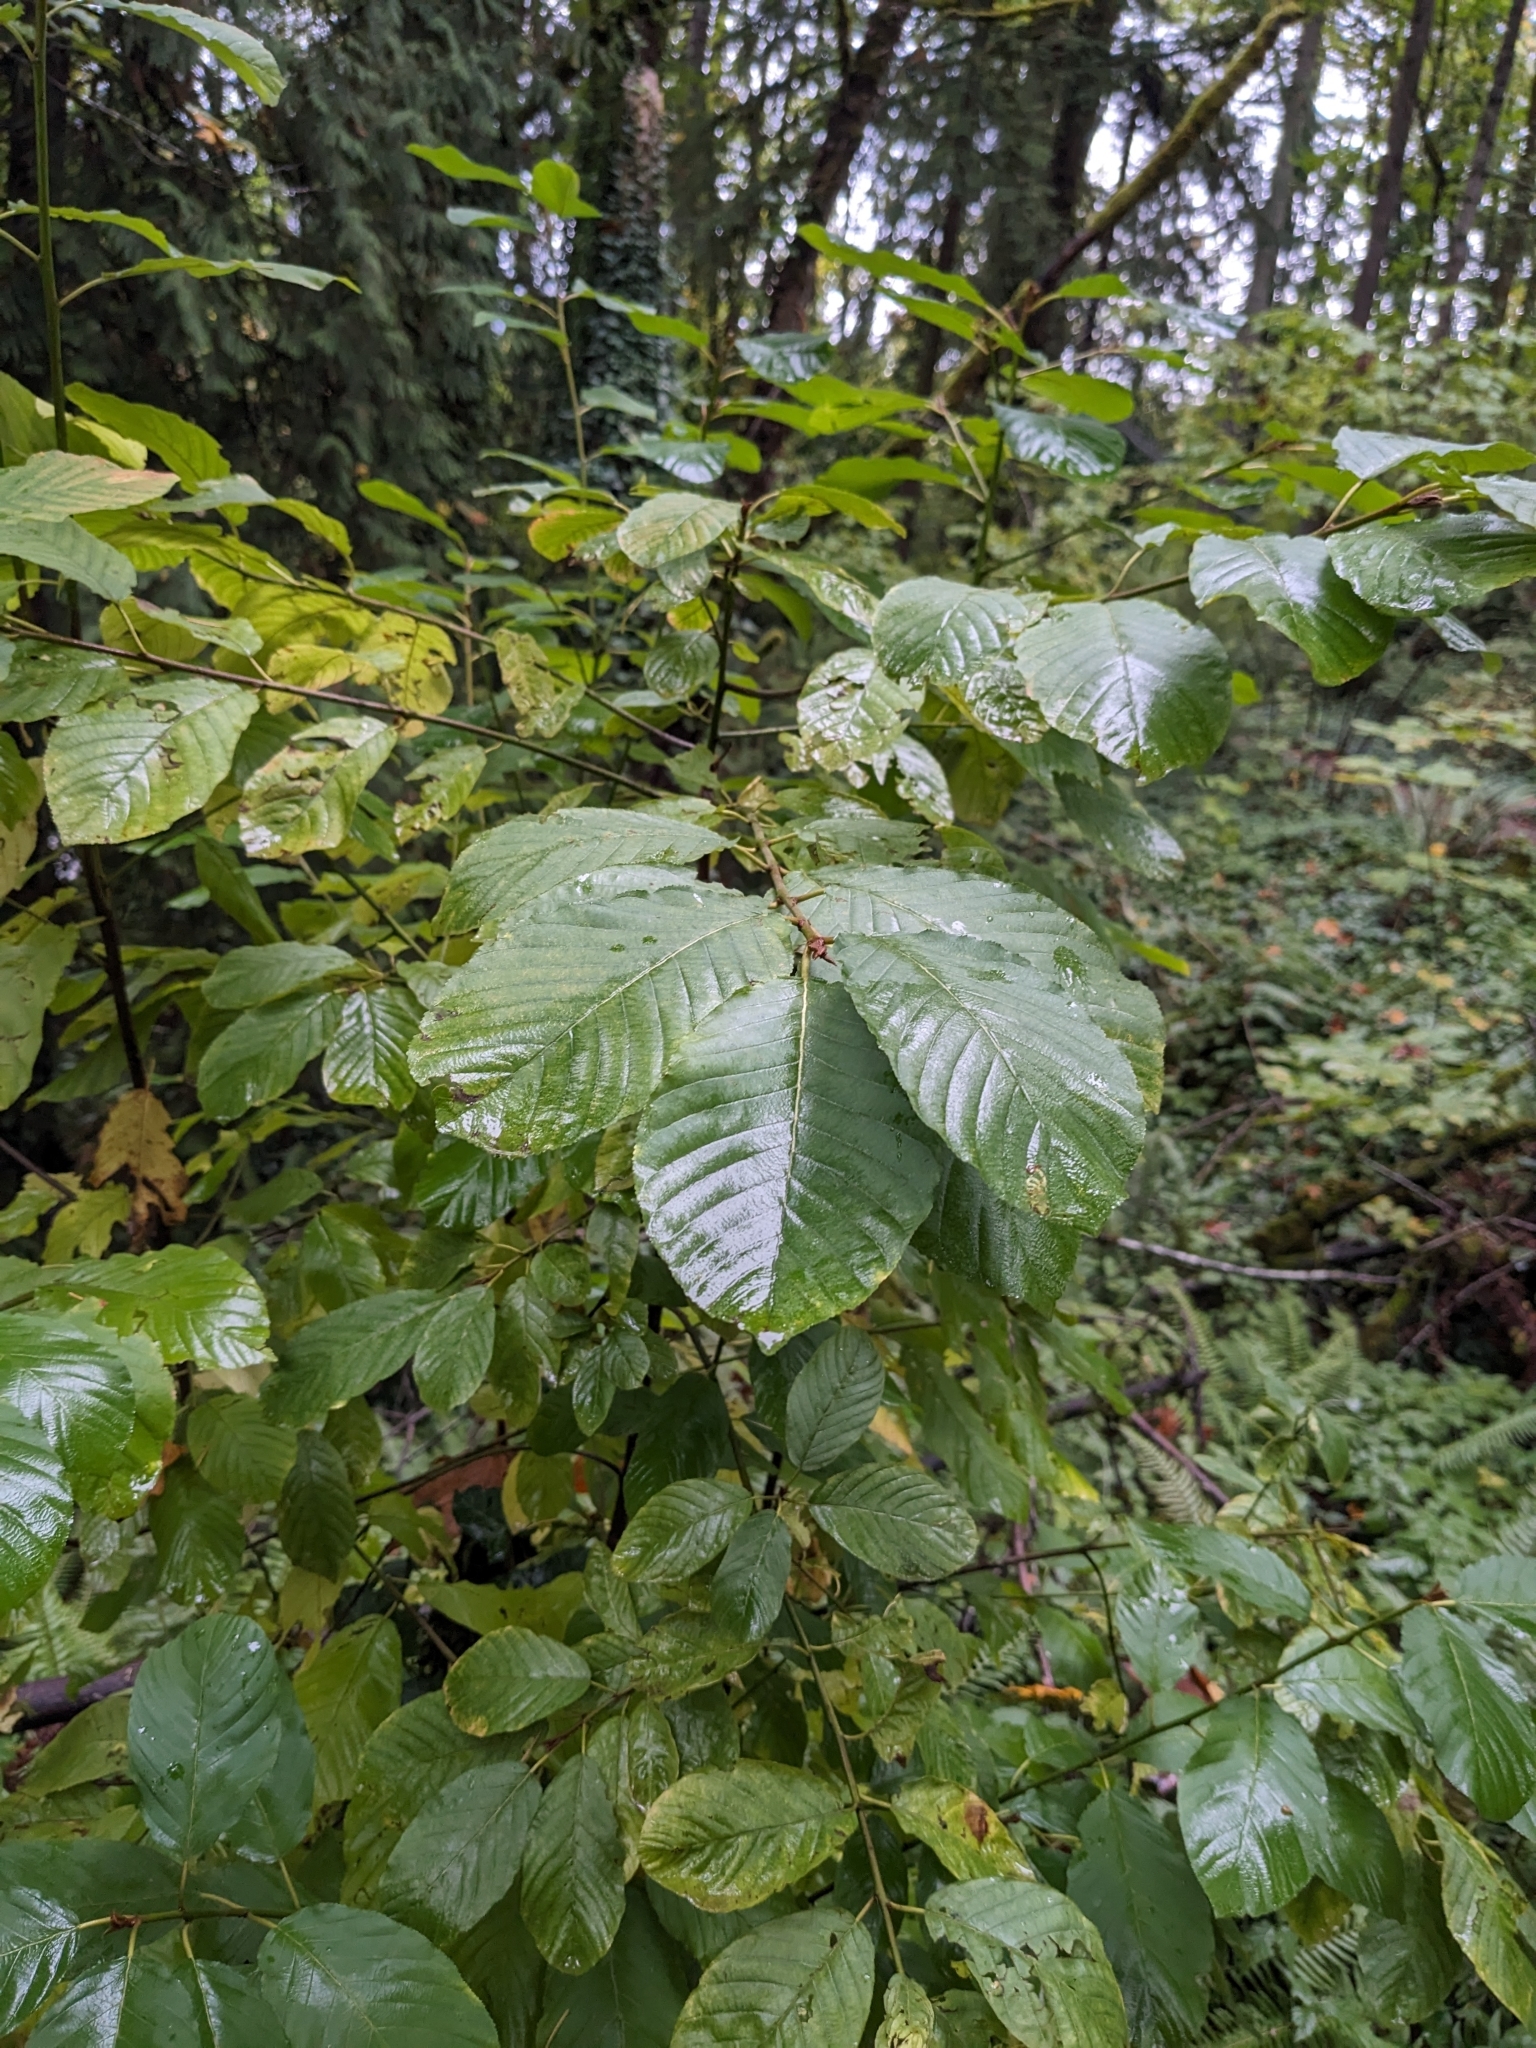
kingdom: Plantae
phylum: Tracheophyta
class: Magnoliopsida
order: Rosales
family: Rhamnaceae
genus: Frangula
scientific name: Frangula purshiana
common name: Cascara buckthorn
